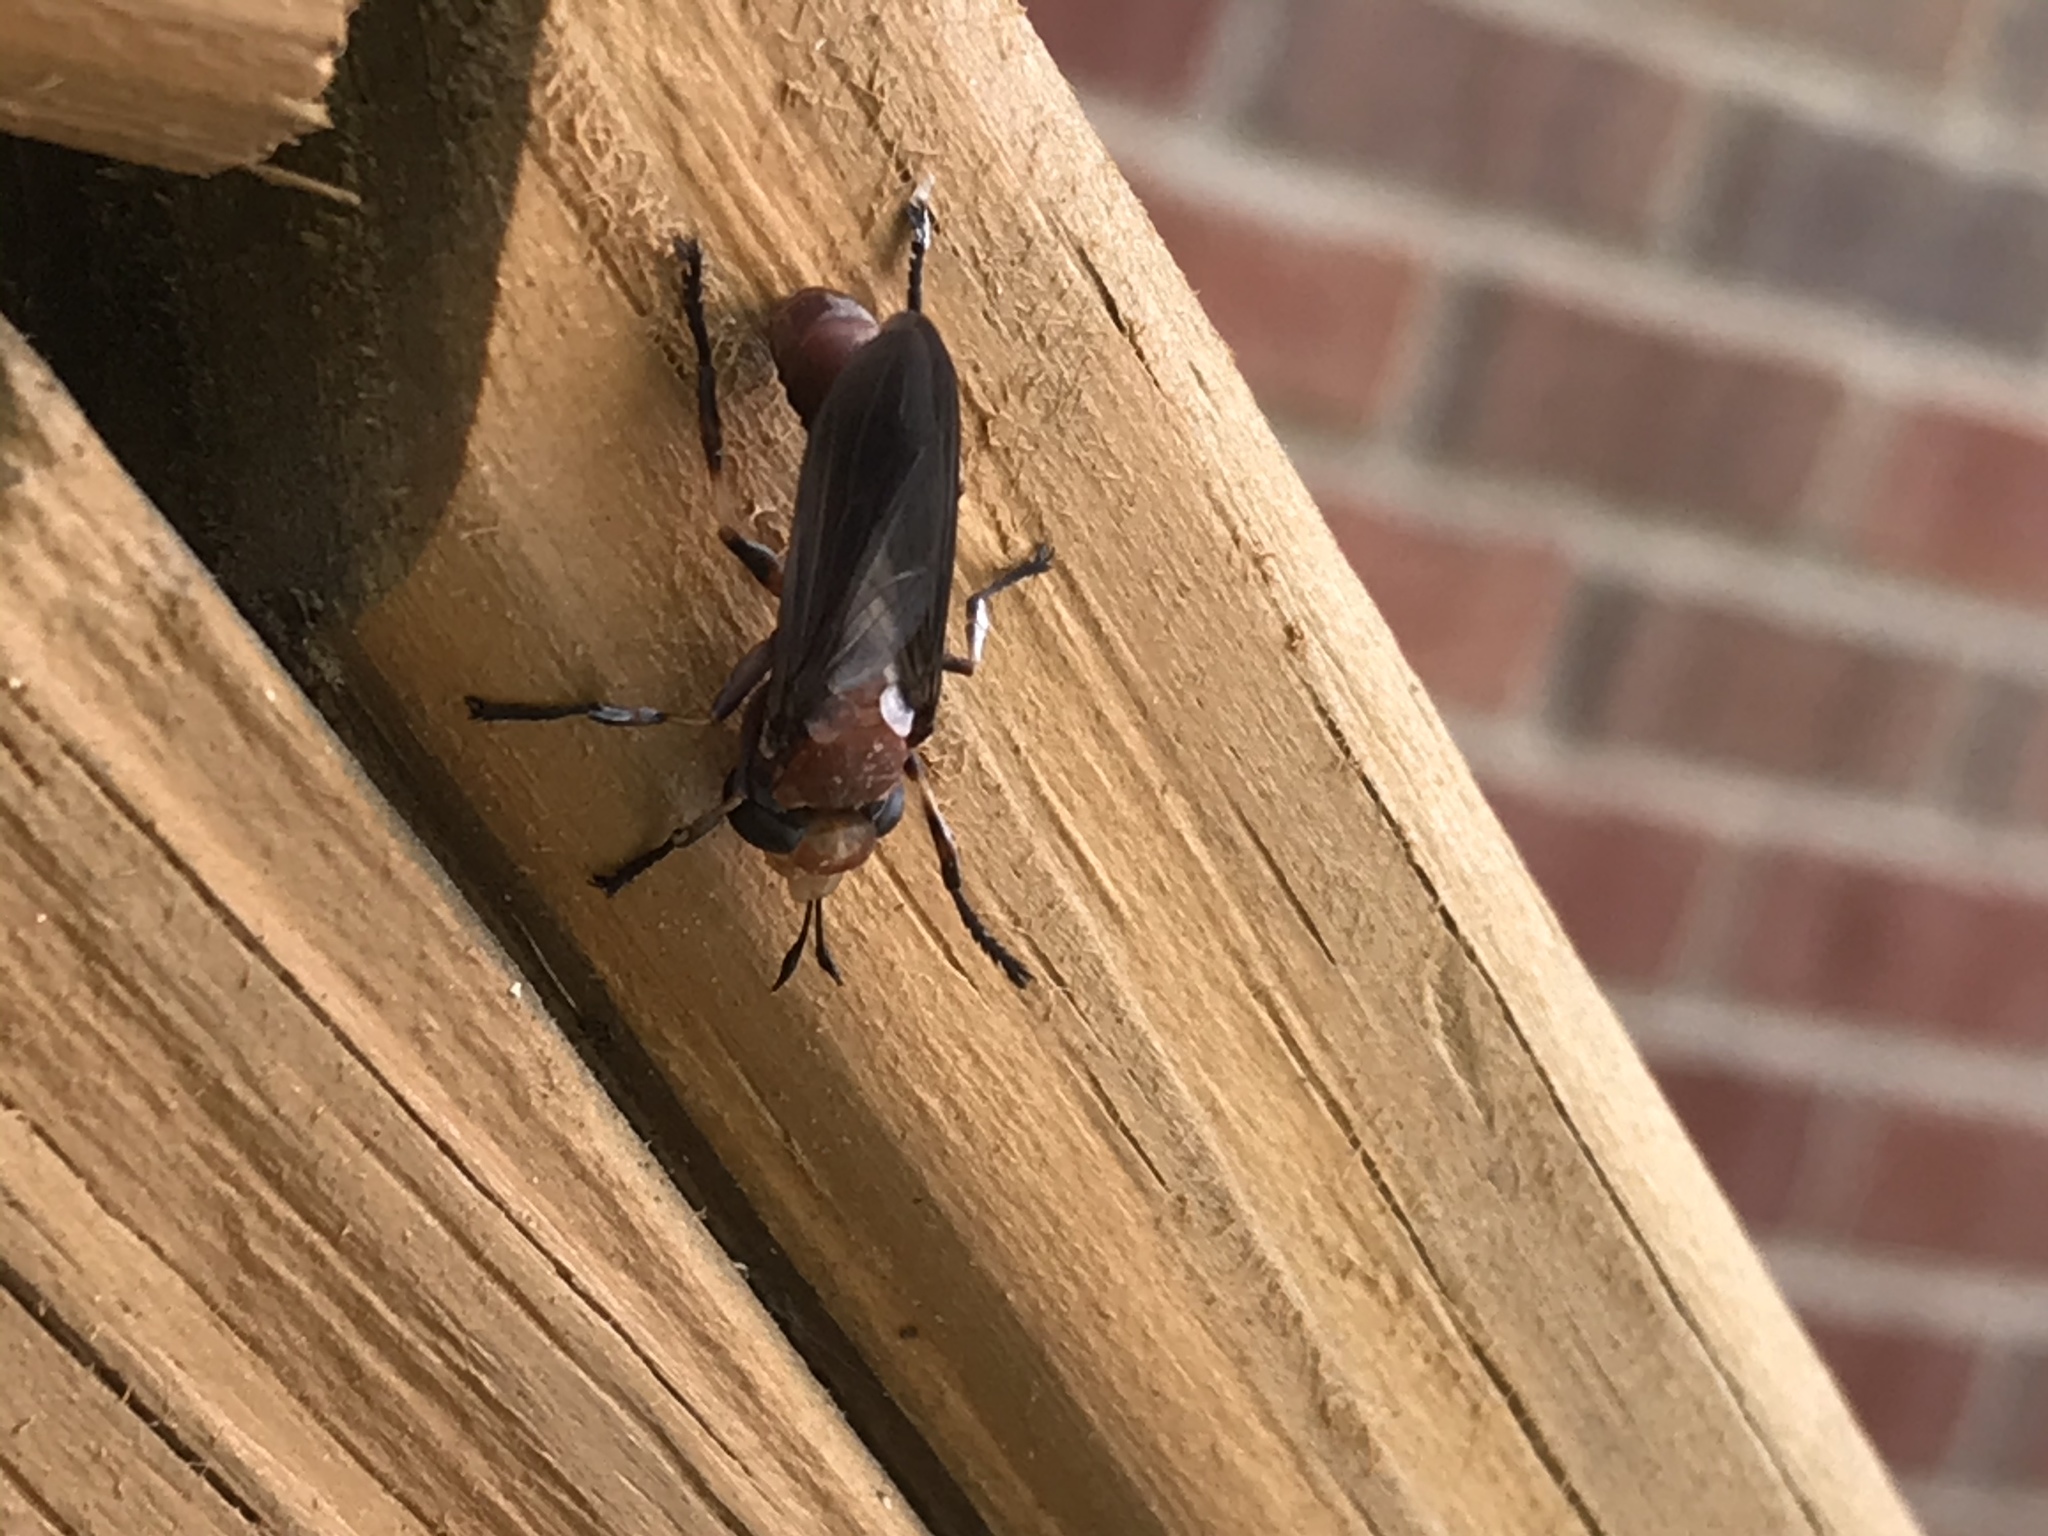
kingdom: Animalia
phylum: Arthropoda
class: Insecta
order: Diptera
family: Conopidae
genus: Physocephala
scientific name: Physocephala tibialis
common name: Common eastern physocephala
